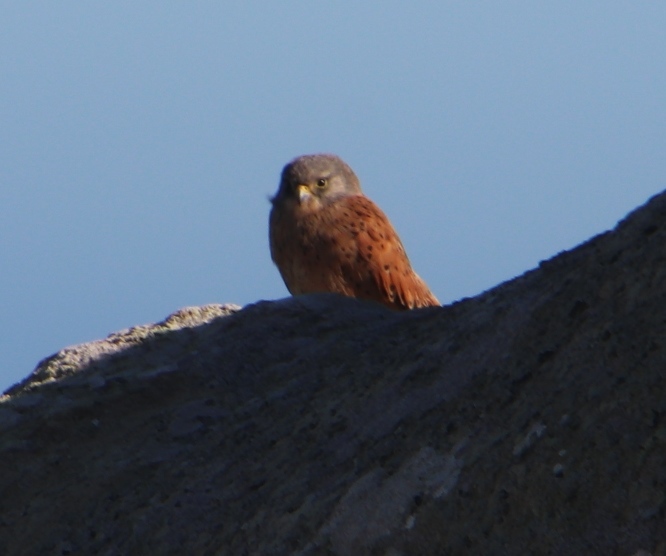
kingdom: Animalia
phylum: Chordata
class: Aves
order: Falconiformes
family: Falconidae
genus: Falco
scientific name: Falco rupicolus
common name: Rock kestrel
